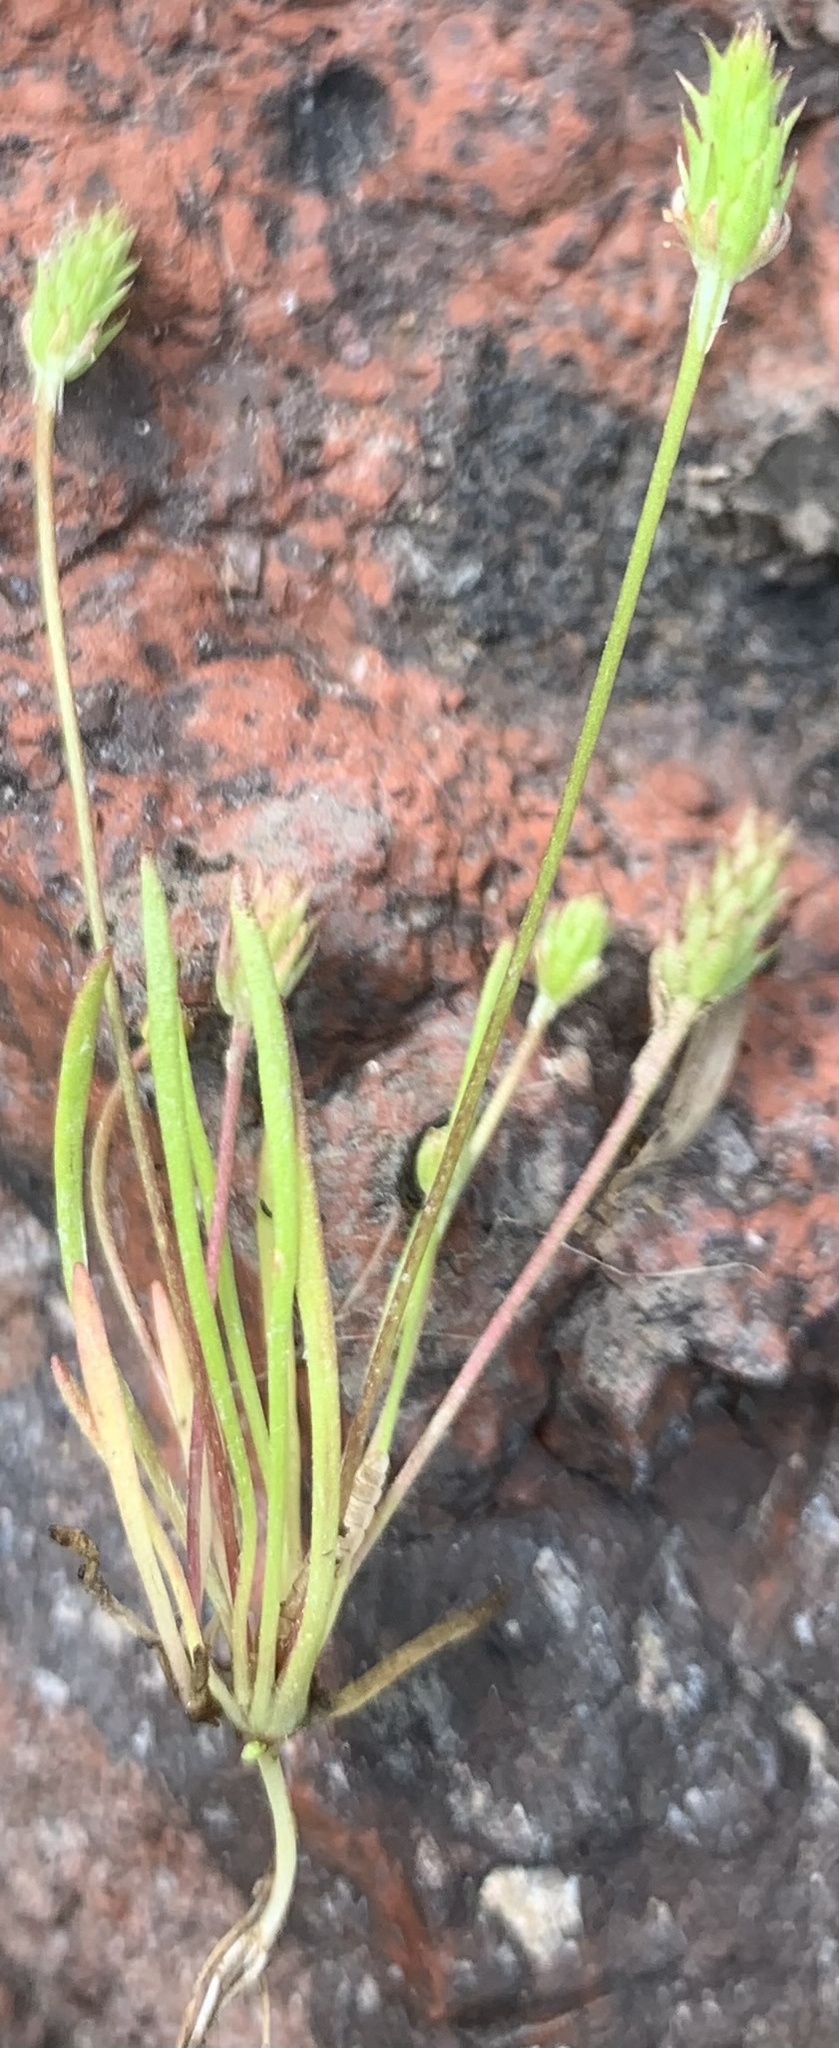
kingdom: Plantae
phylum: Tracheophyta
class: Magnoliopsida
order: Ranunculales
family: Ranunculaceae
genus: Myosurus
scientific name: Myosurus apetalus
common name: Mousetail
